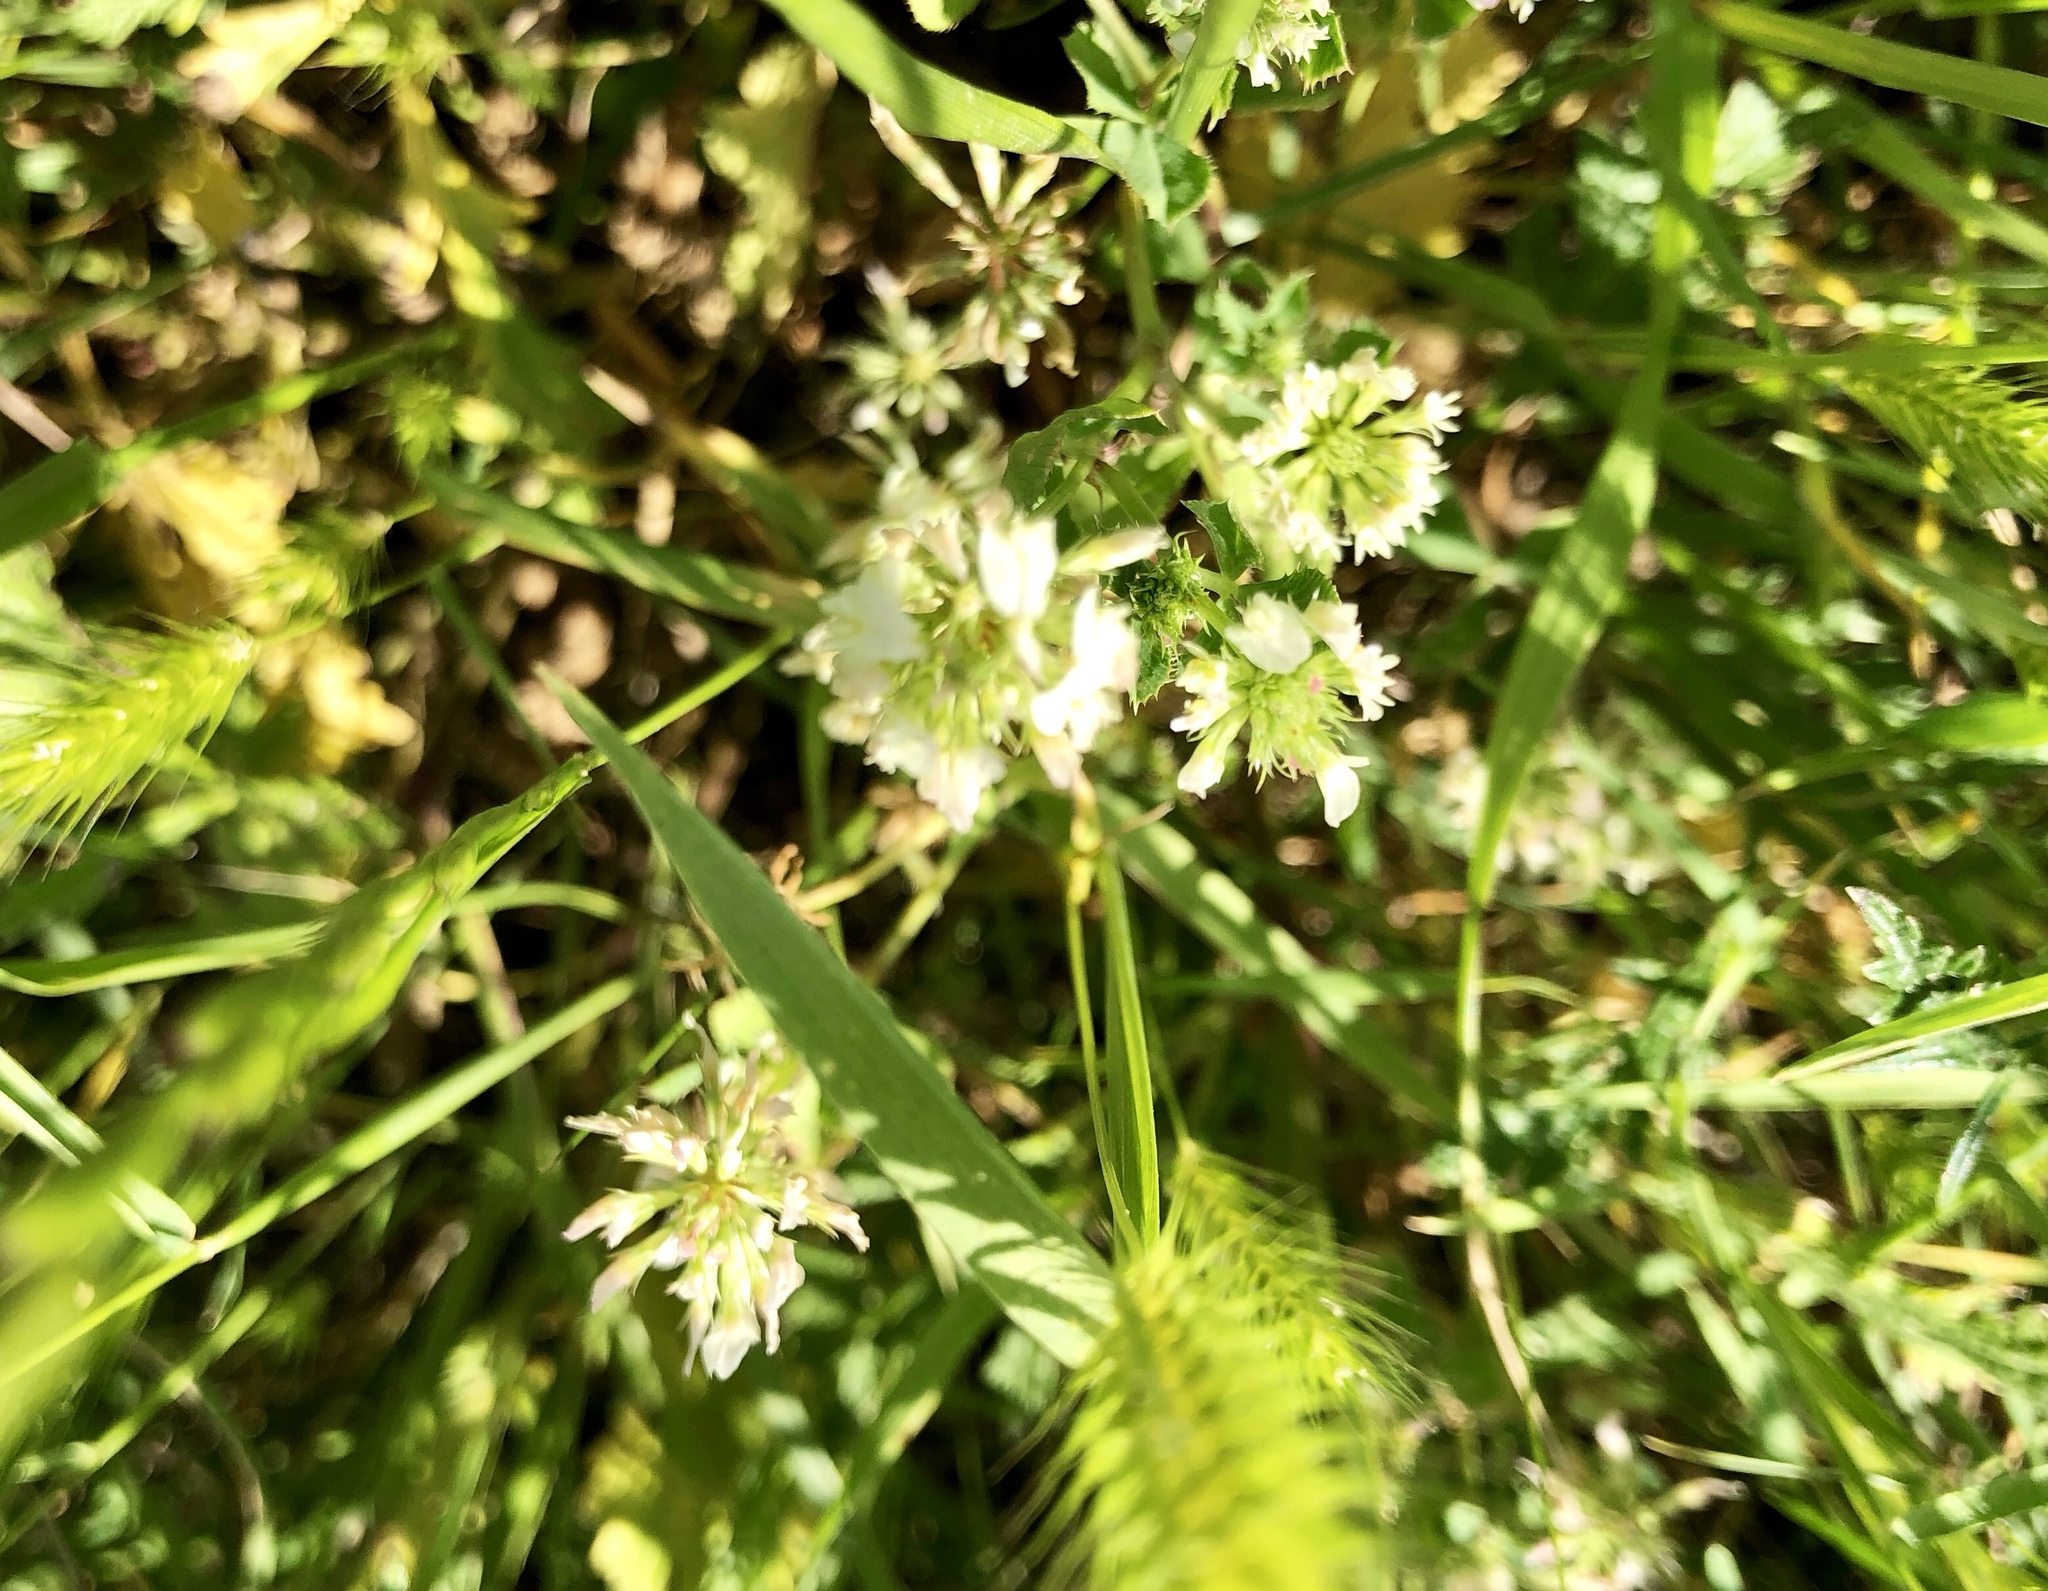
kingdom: Plantae
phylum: Tracheophyta
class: Magnoliopsida
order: Fabales
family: Fabaceae
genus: Trifolium
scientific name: Trifolium repens
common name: White clover
